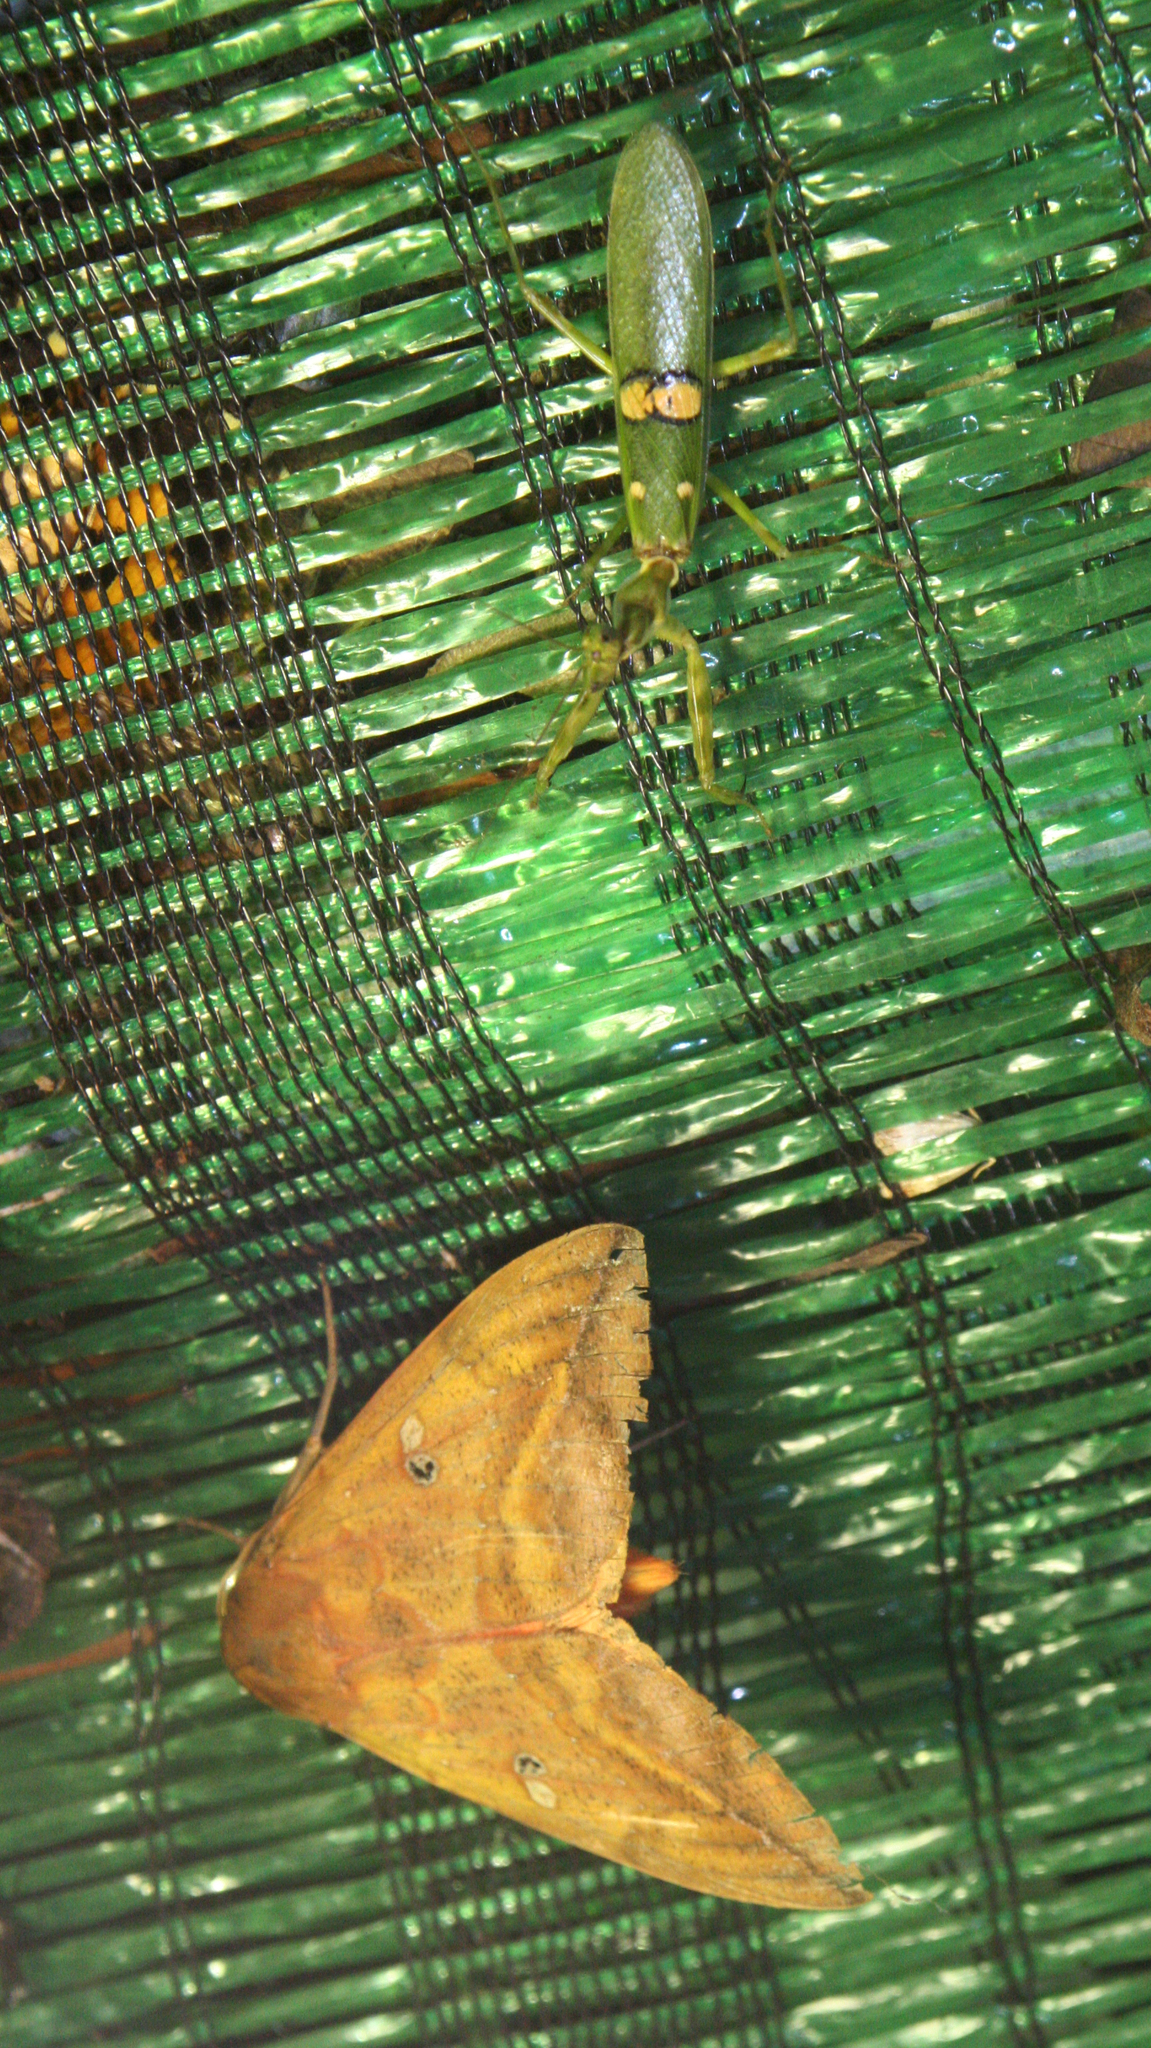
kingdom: Animalia
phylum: Arthropoda
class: Insecta
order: Lepidoptera
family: Erebidae
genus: Thyas
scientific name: Thyas honesta
